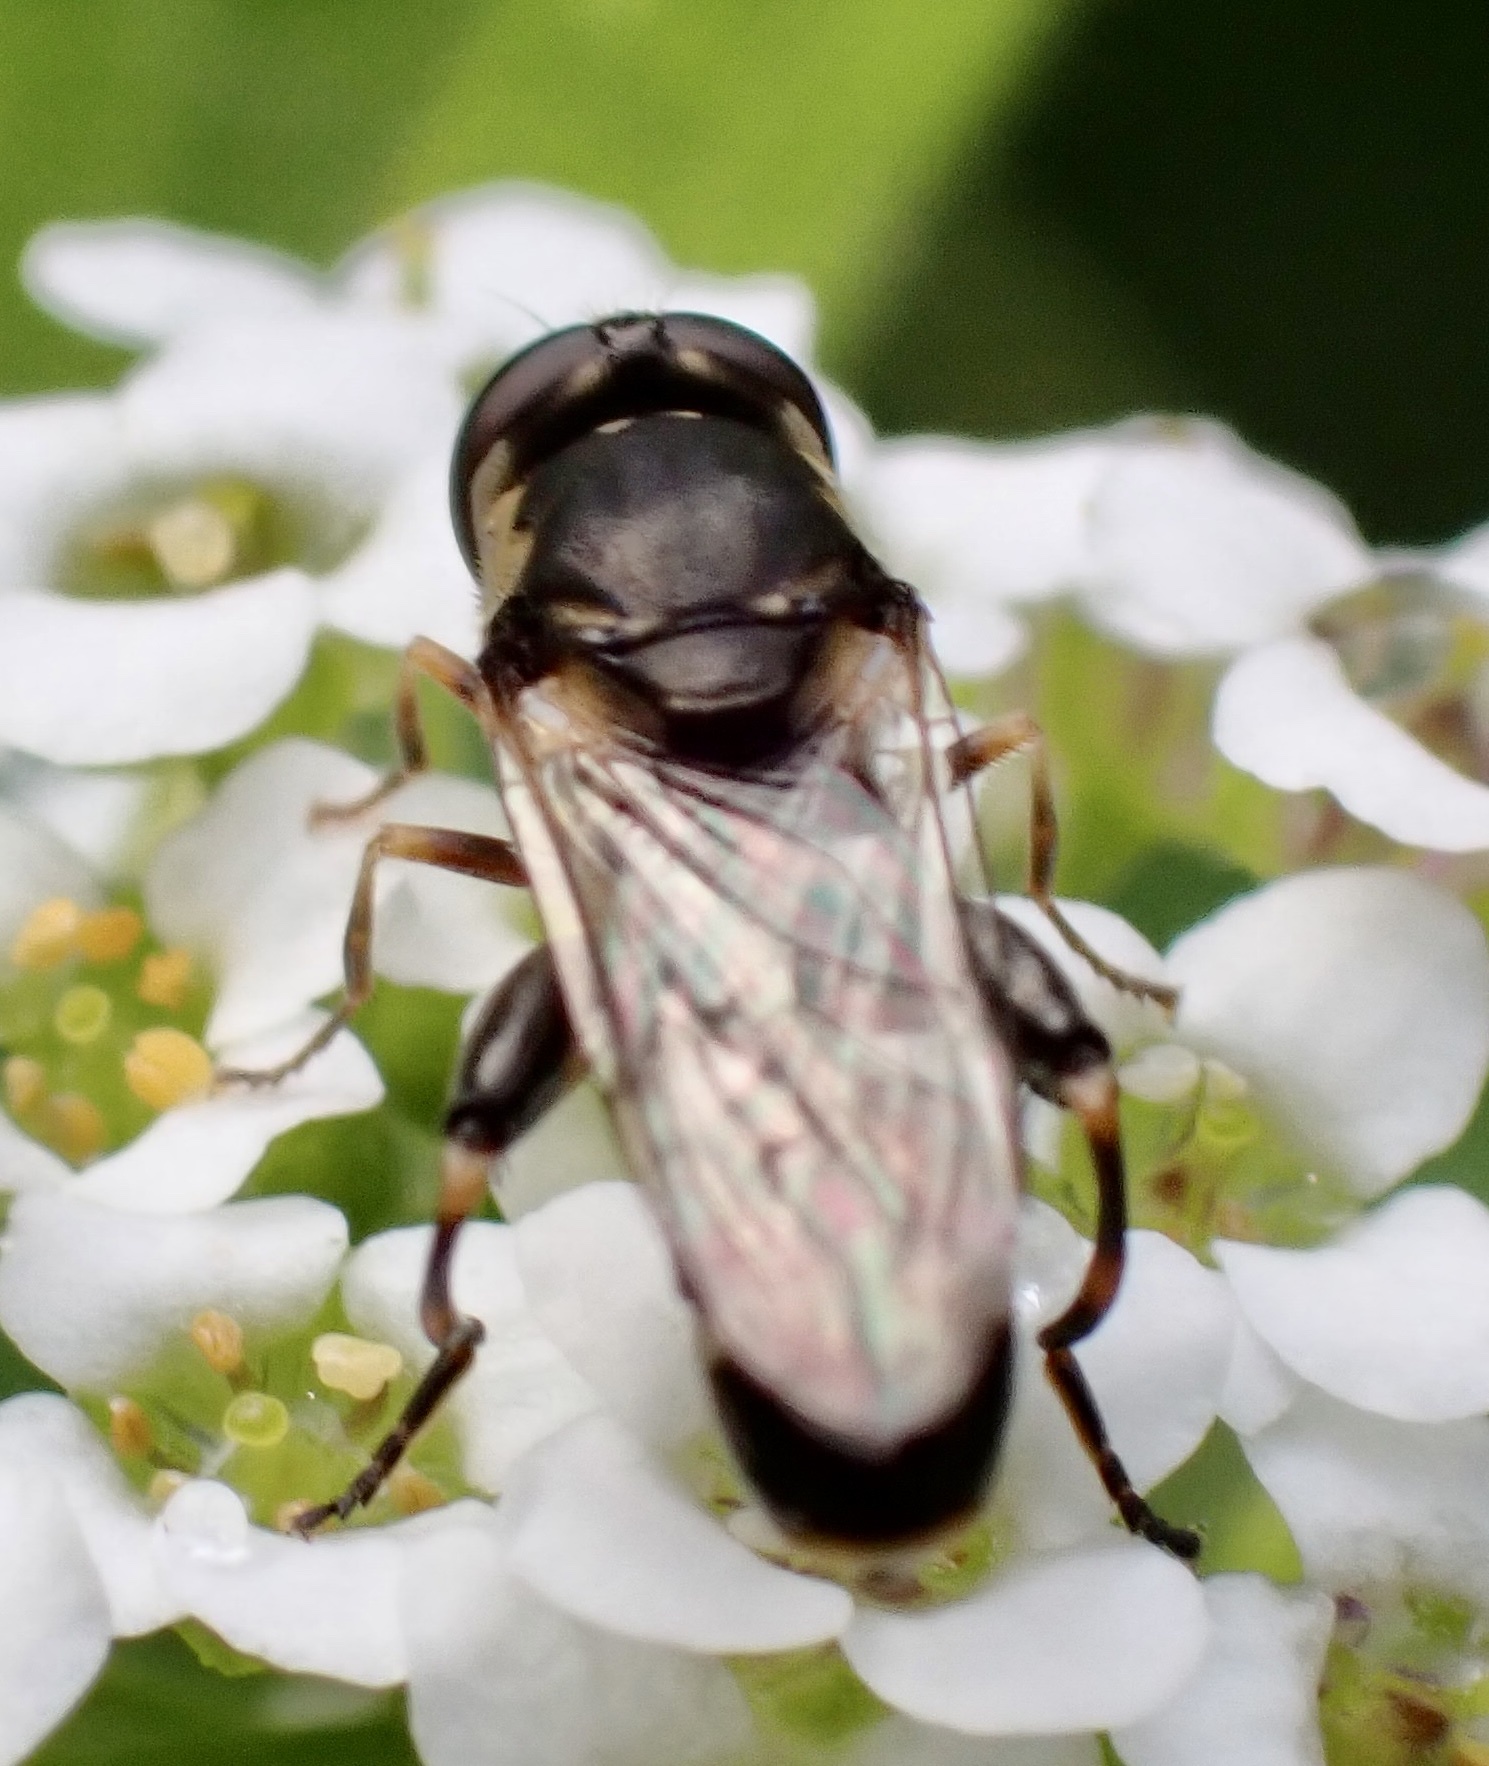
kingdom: Animalia
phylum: Arthropoda
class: Insecta
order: Diptera
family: Syrphidae
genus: Syritta
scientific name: Syritta pipiens
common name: Hover fly
